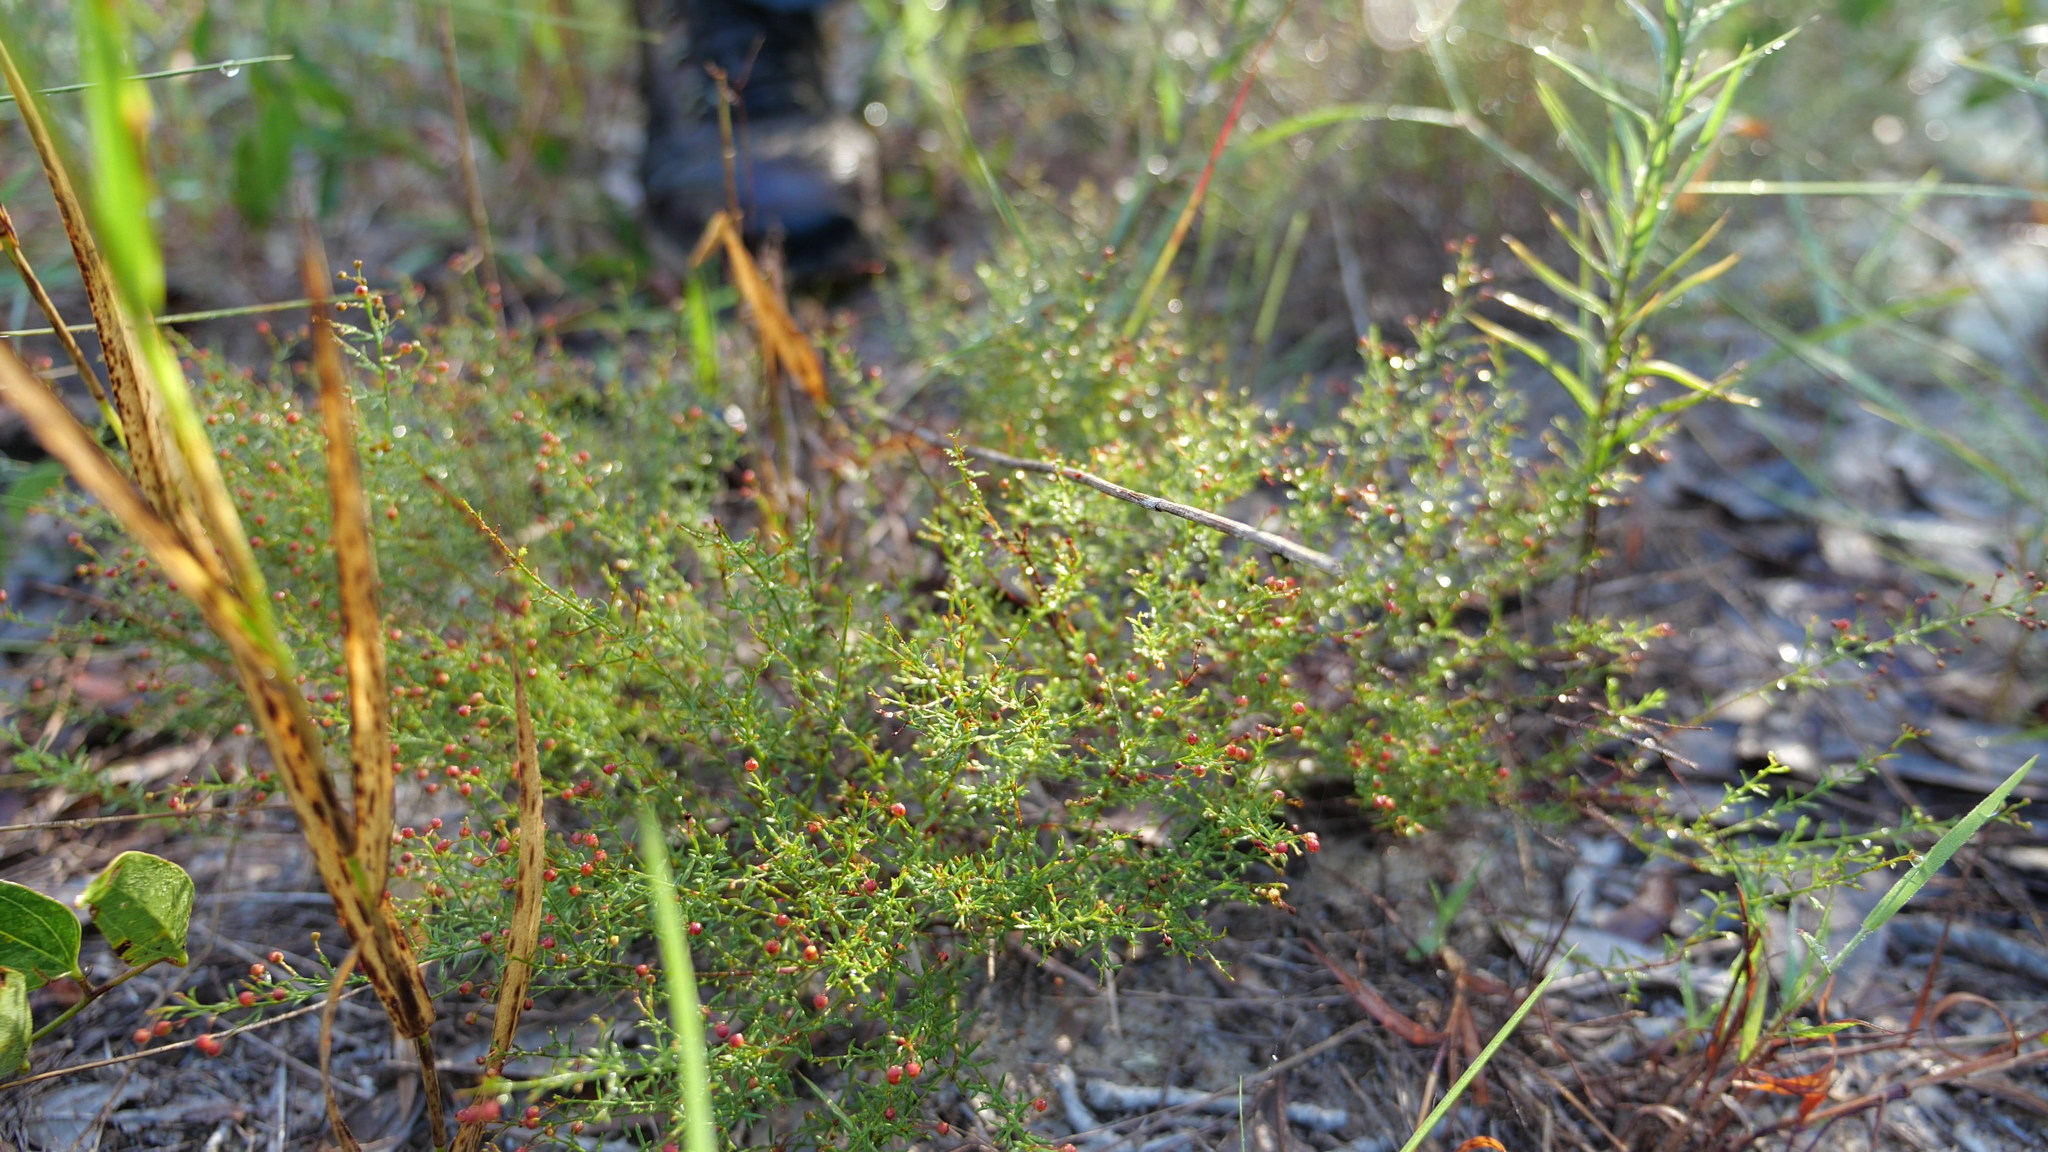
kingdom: Plantae
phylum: Tracheophyta
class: Magnoliopsida
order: Malvales
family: Cistaceae
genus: Lechea
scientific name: Lechea deckertii
